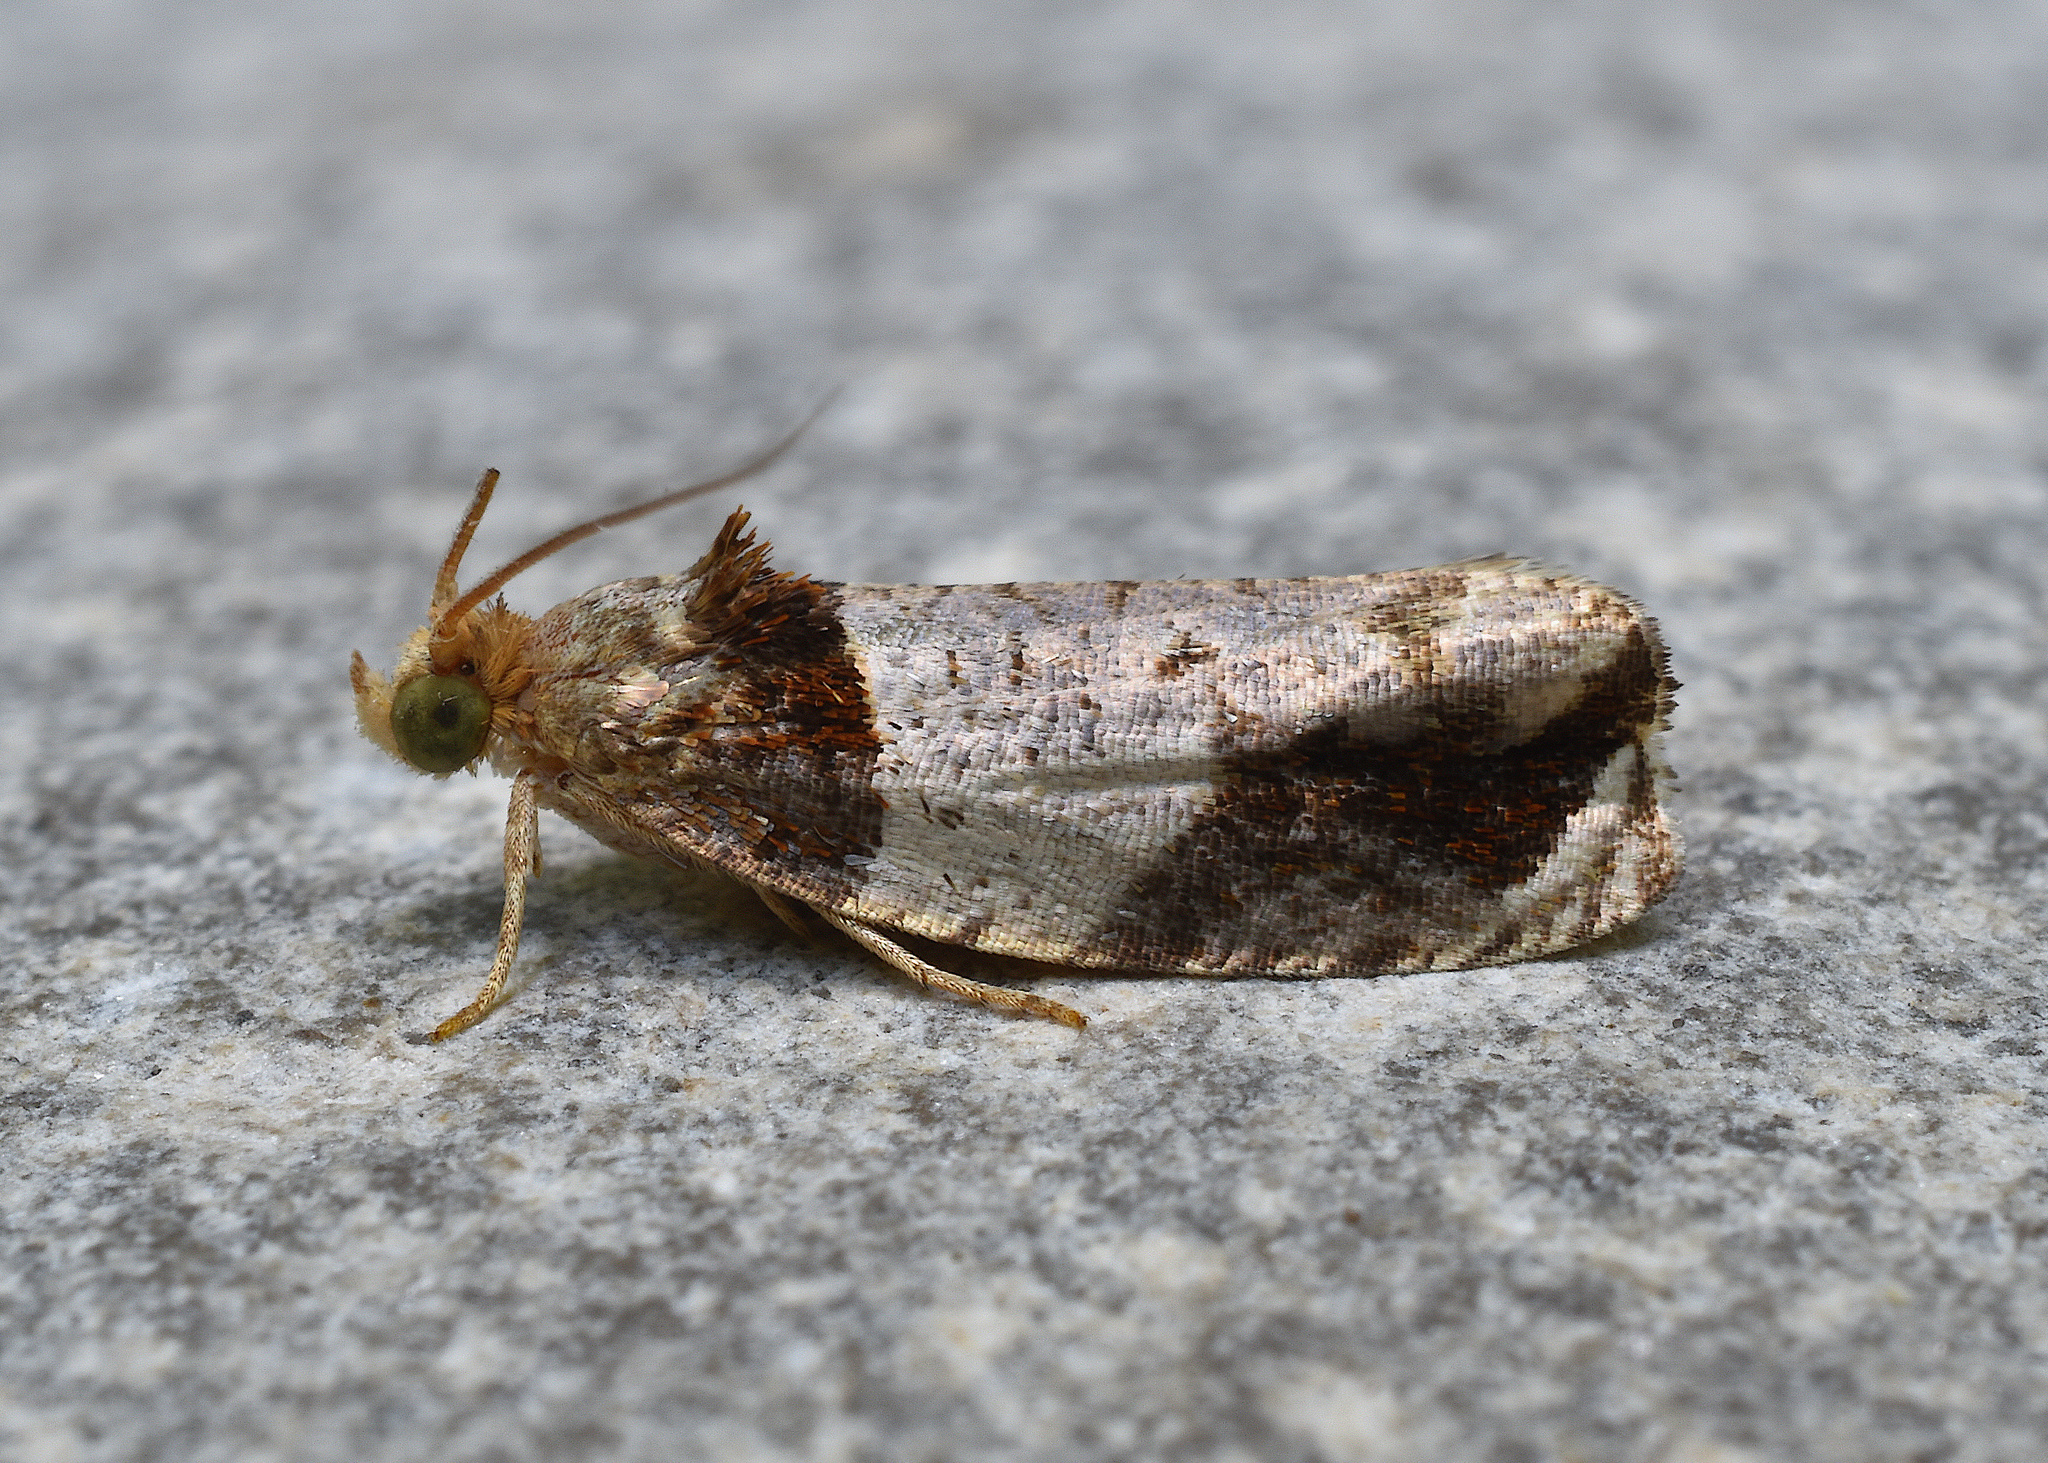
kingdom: Animalia
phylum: Arthropoda
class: Insecta
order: Lepidoptera
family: Tortricidae
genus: Olethreutes
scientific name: Olethreutes ferriferana
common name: Hydrangea leaftier moth
